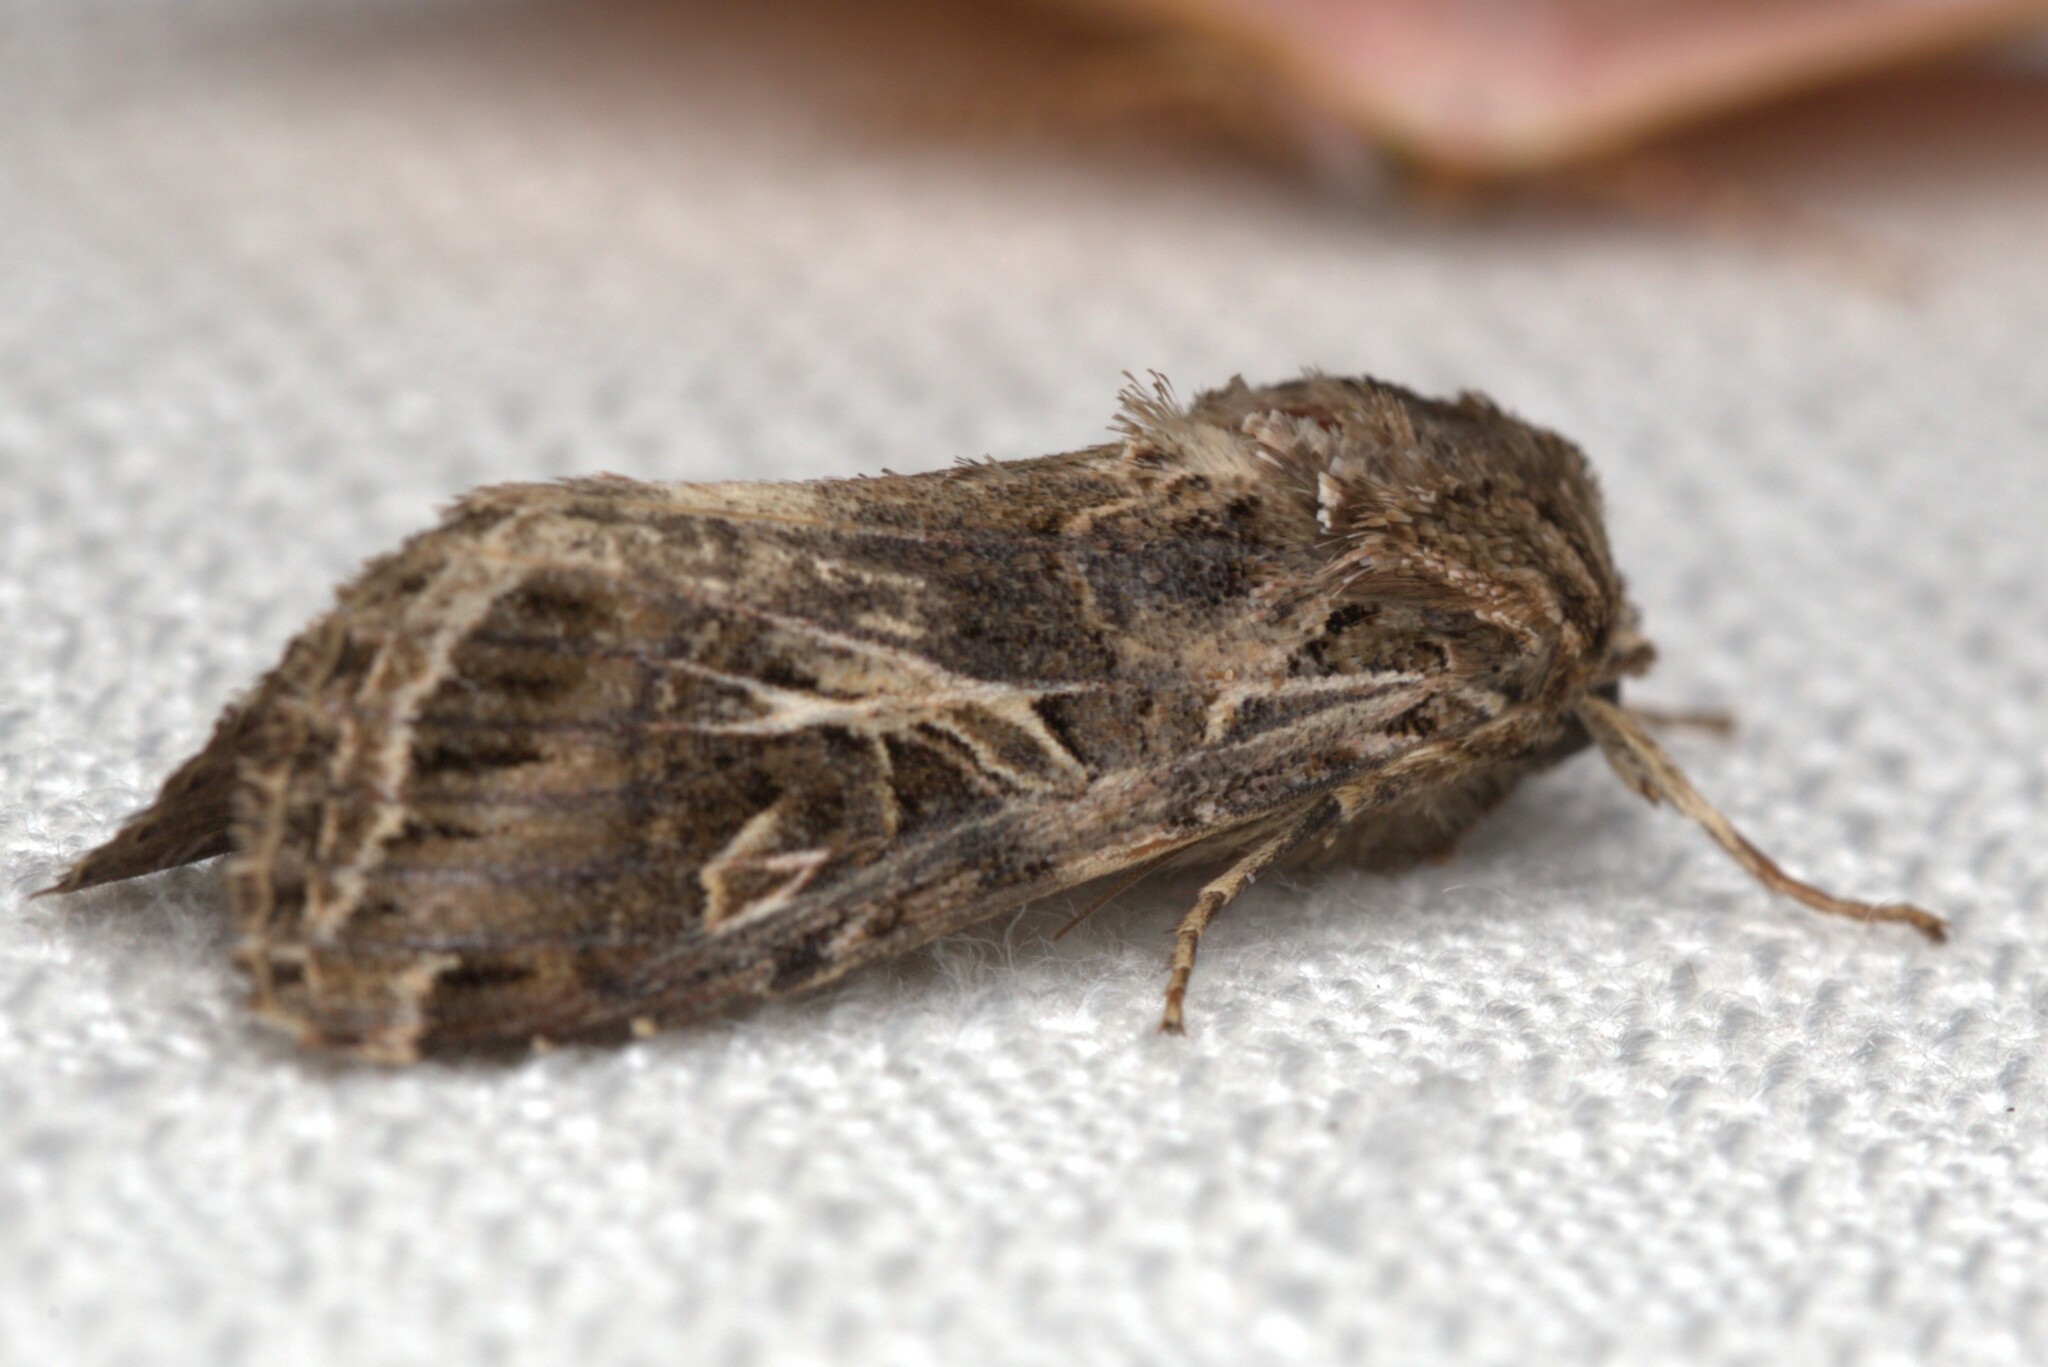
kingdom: Animalia
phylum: Arthropoda
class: Insecta
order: Lepidoptera
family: Noctuidae
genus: Spodoptera
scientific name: Spodoptera litura
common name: Asian cotton leafworm
